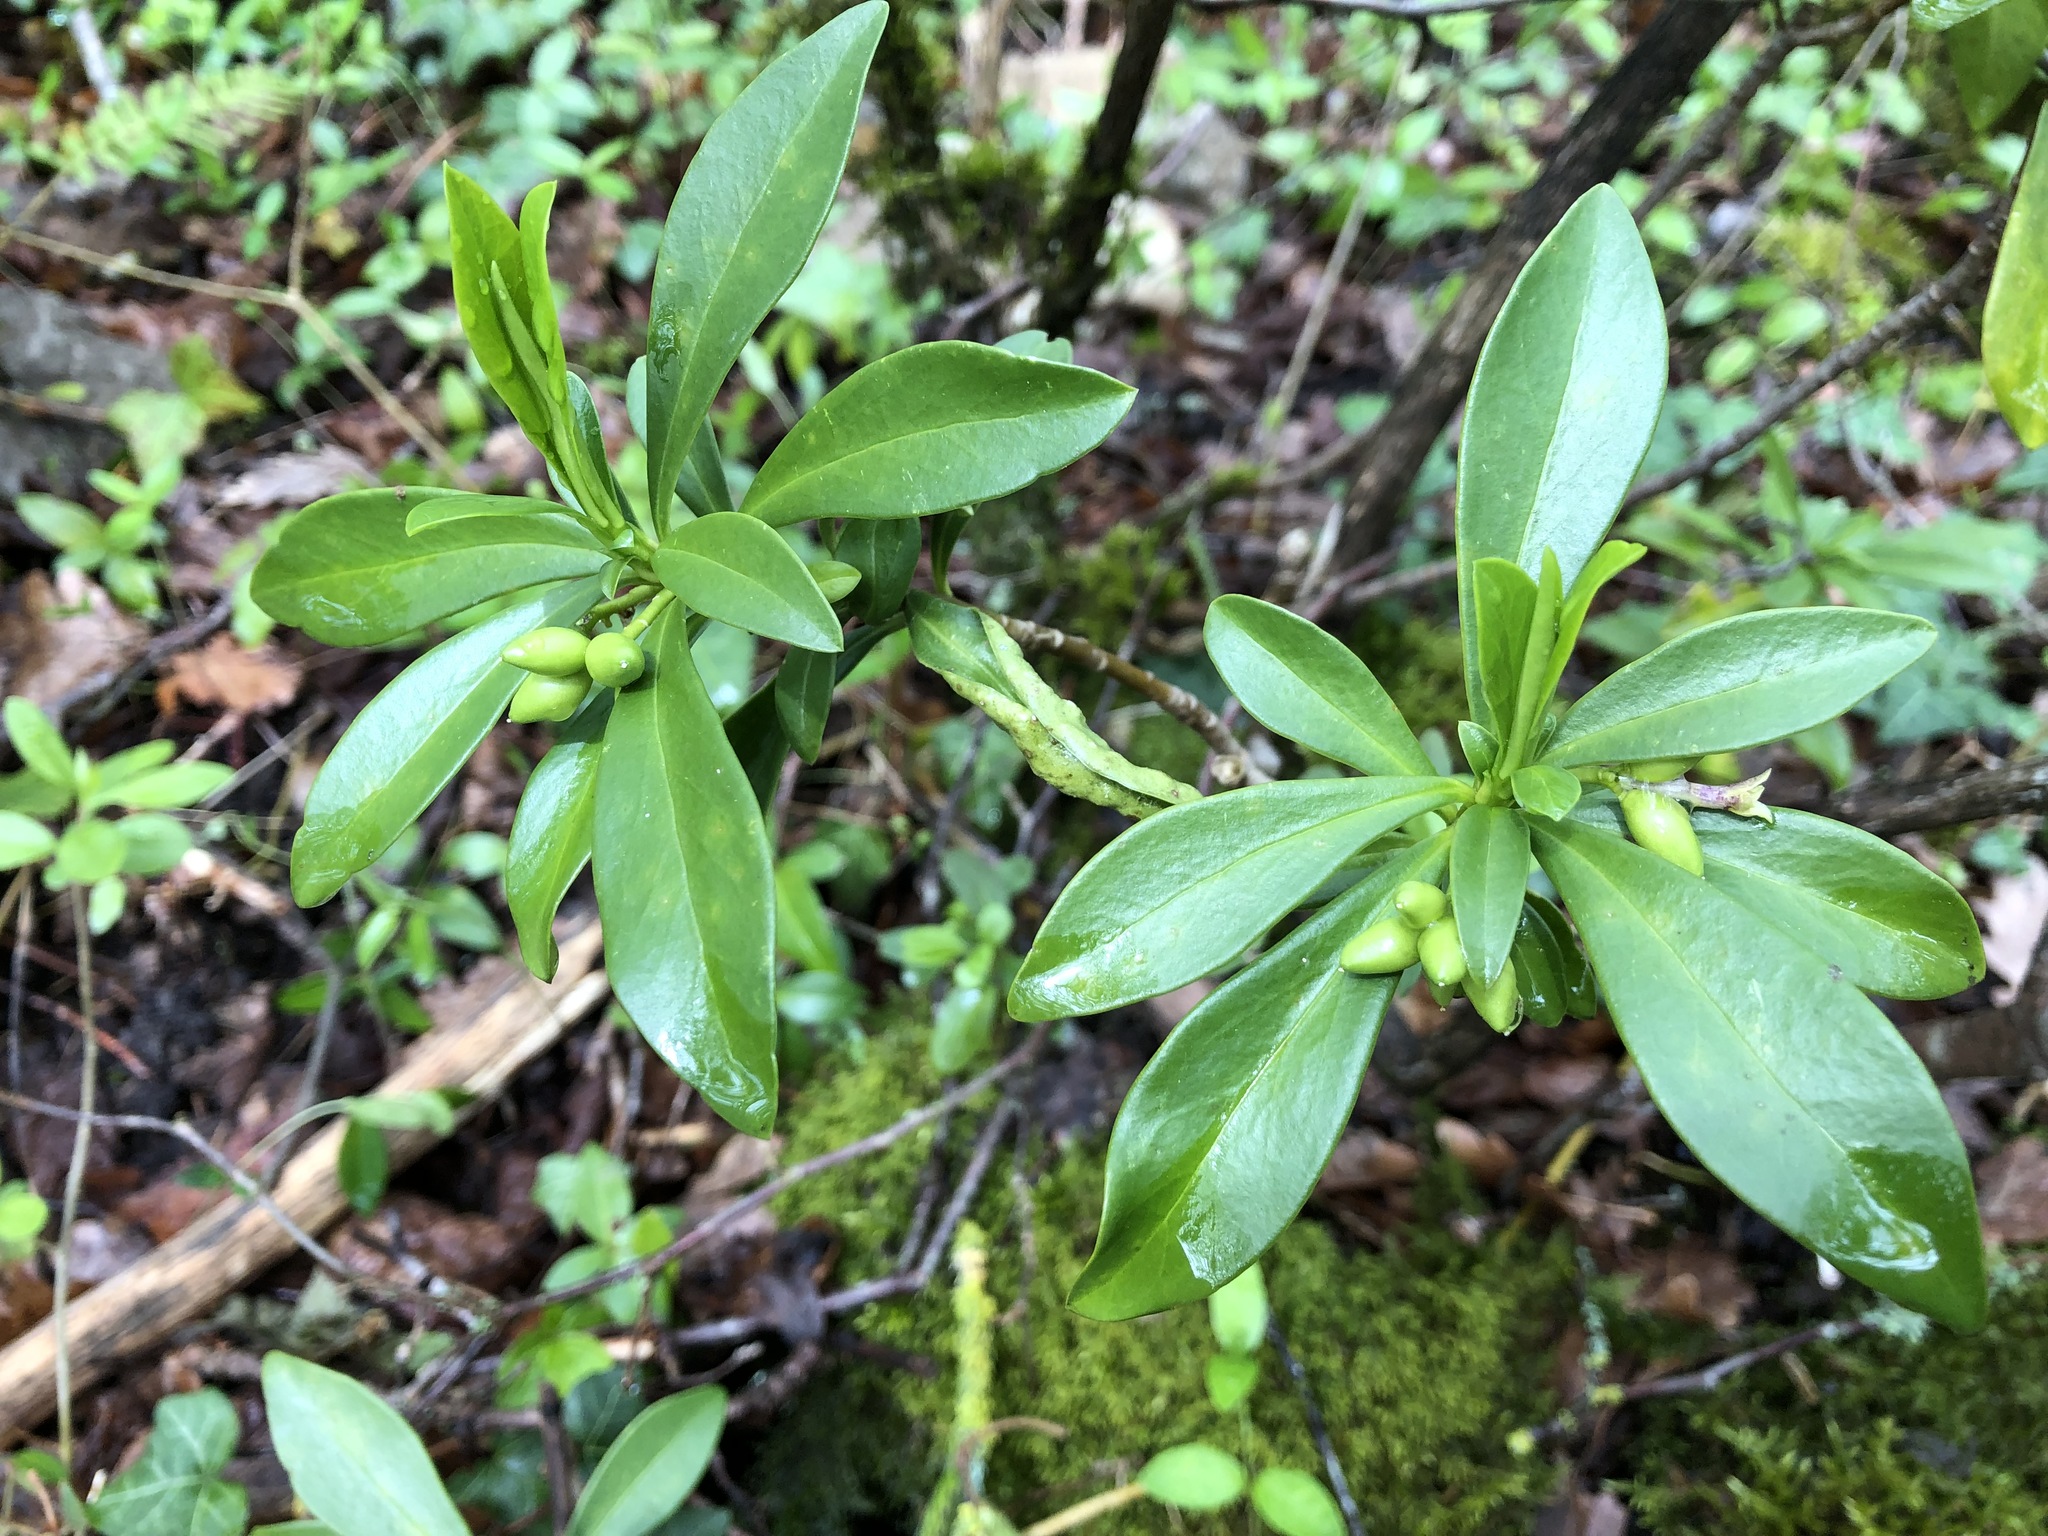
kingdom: Plantae
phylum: Tracheophyta
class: Magnoliopsida
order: Malvales
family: Thymelaeaceae
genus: Daphne
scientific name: Daphne laureola
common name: Spurge-laurel
